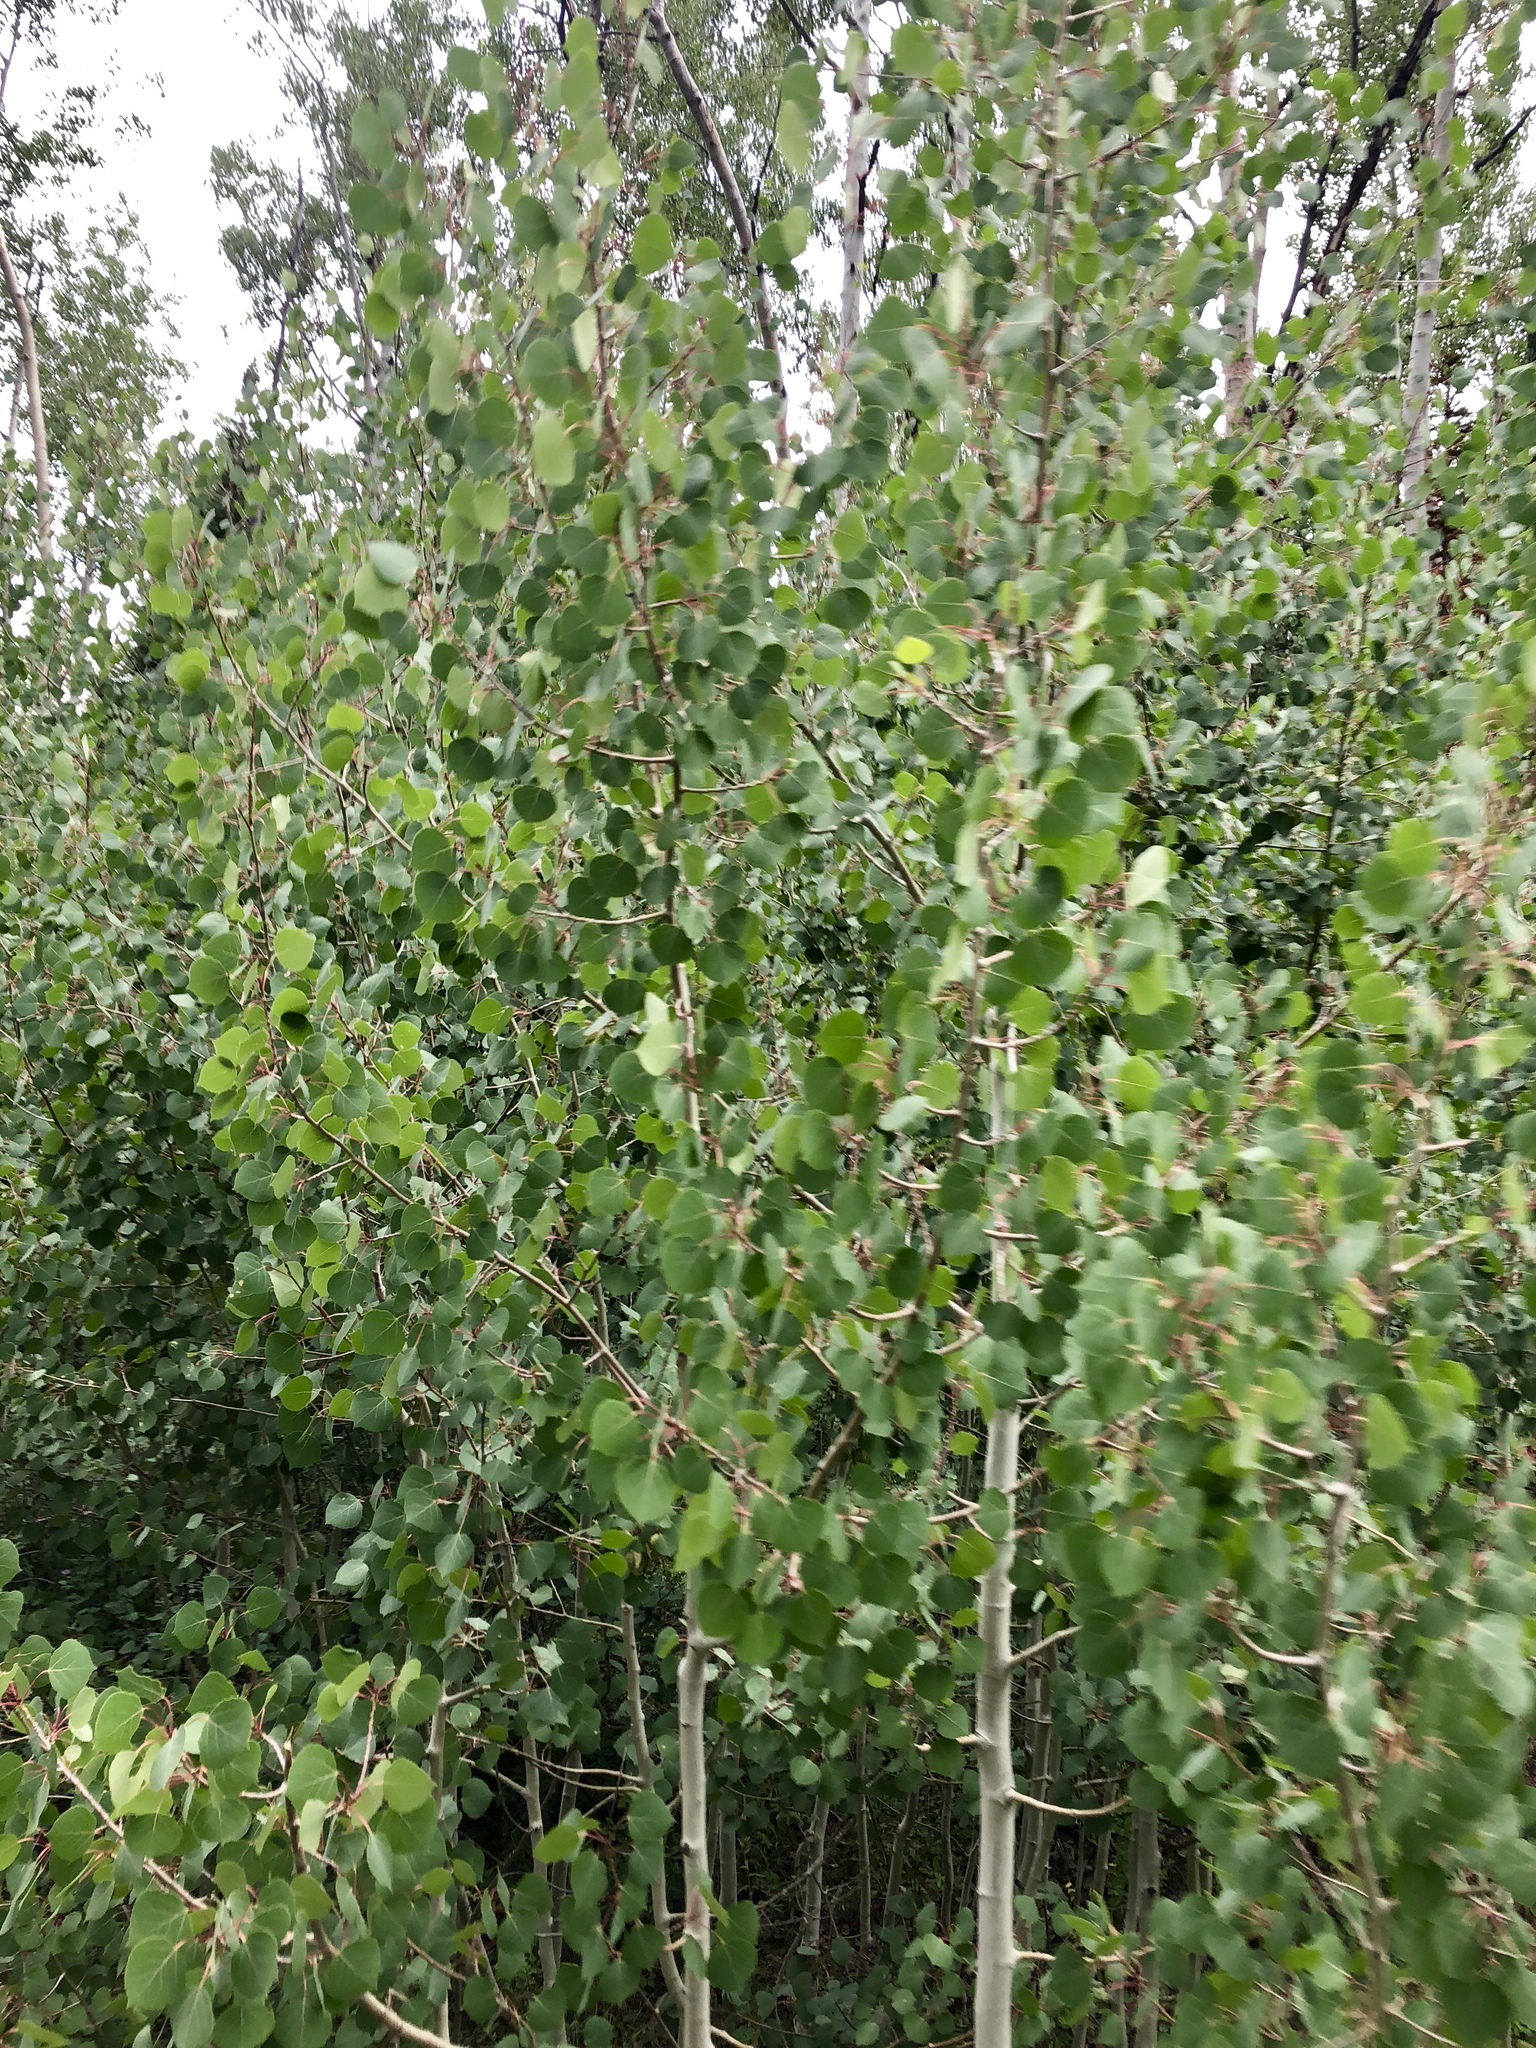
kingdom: Plantae
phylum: Tracheophyta
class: Magnoliopsida
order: Malpighiales
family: Salicaceae
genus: Populus
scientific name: Populus tremuloides
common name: Quaking aspen
